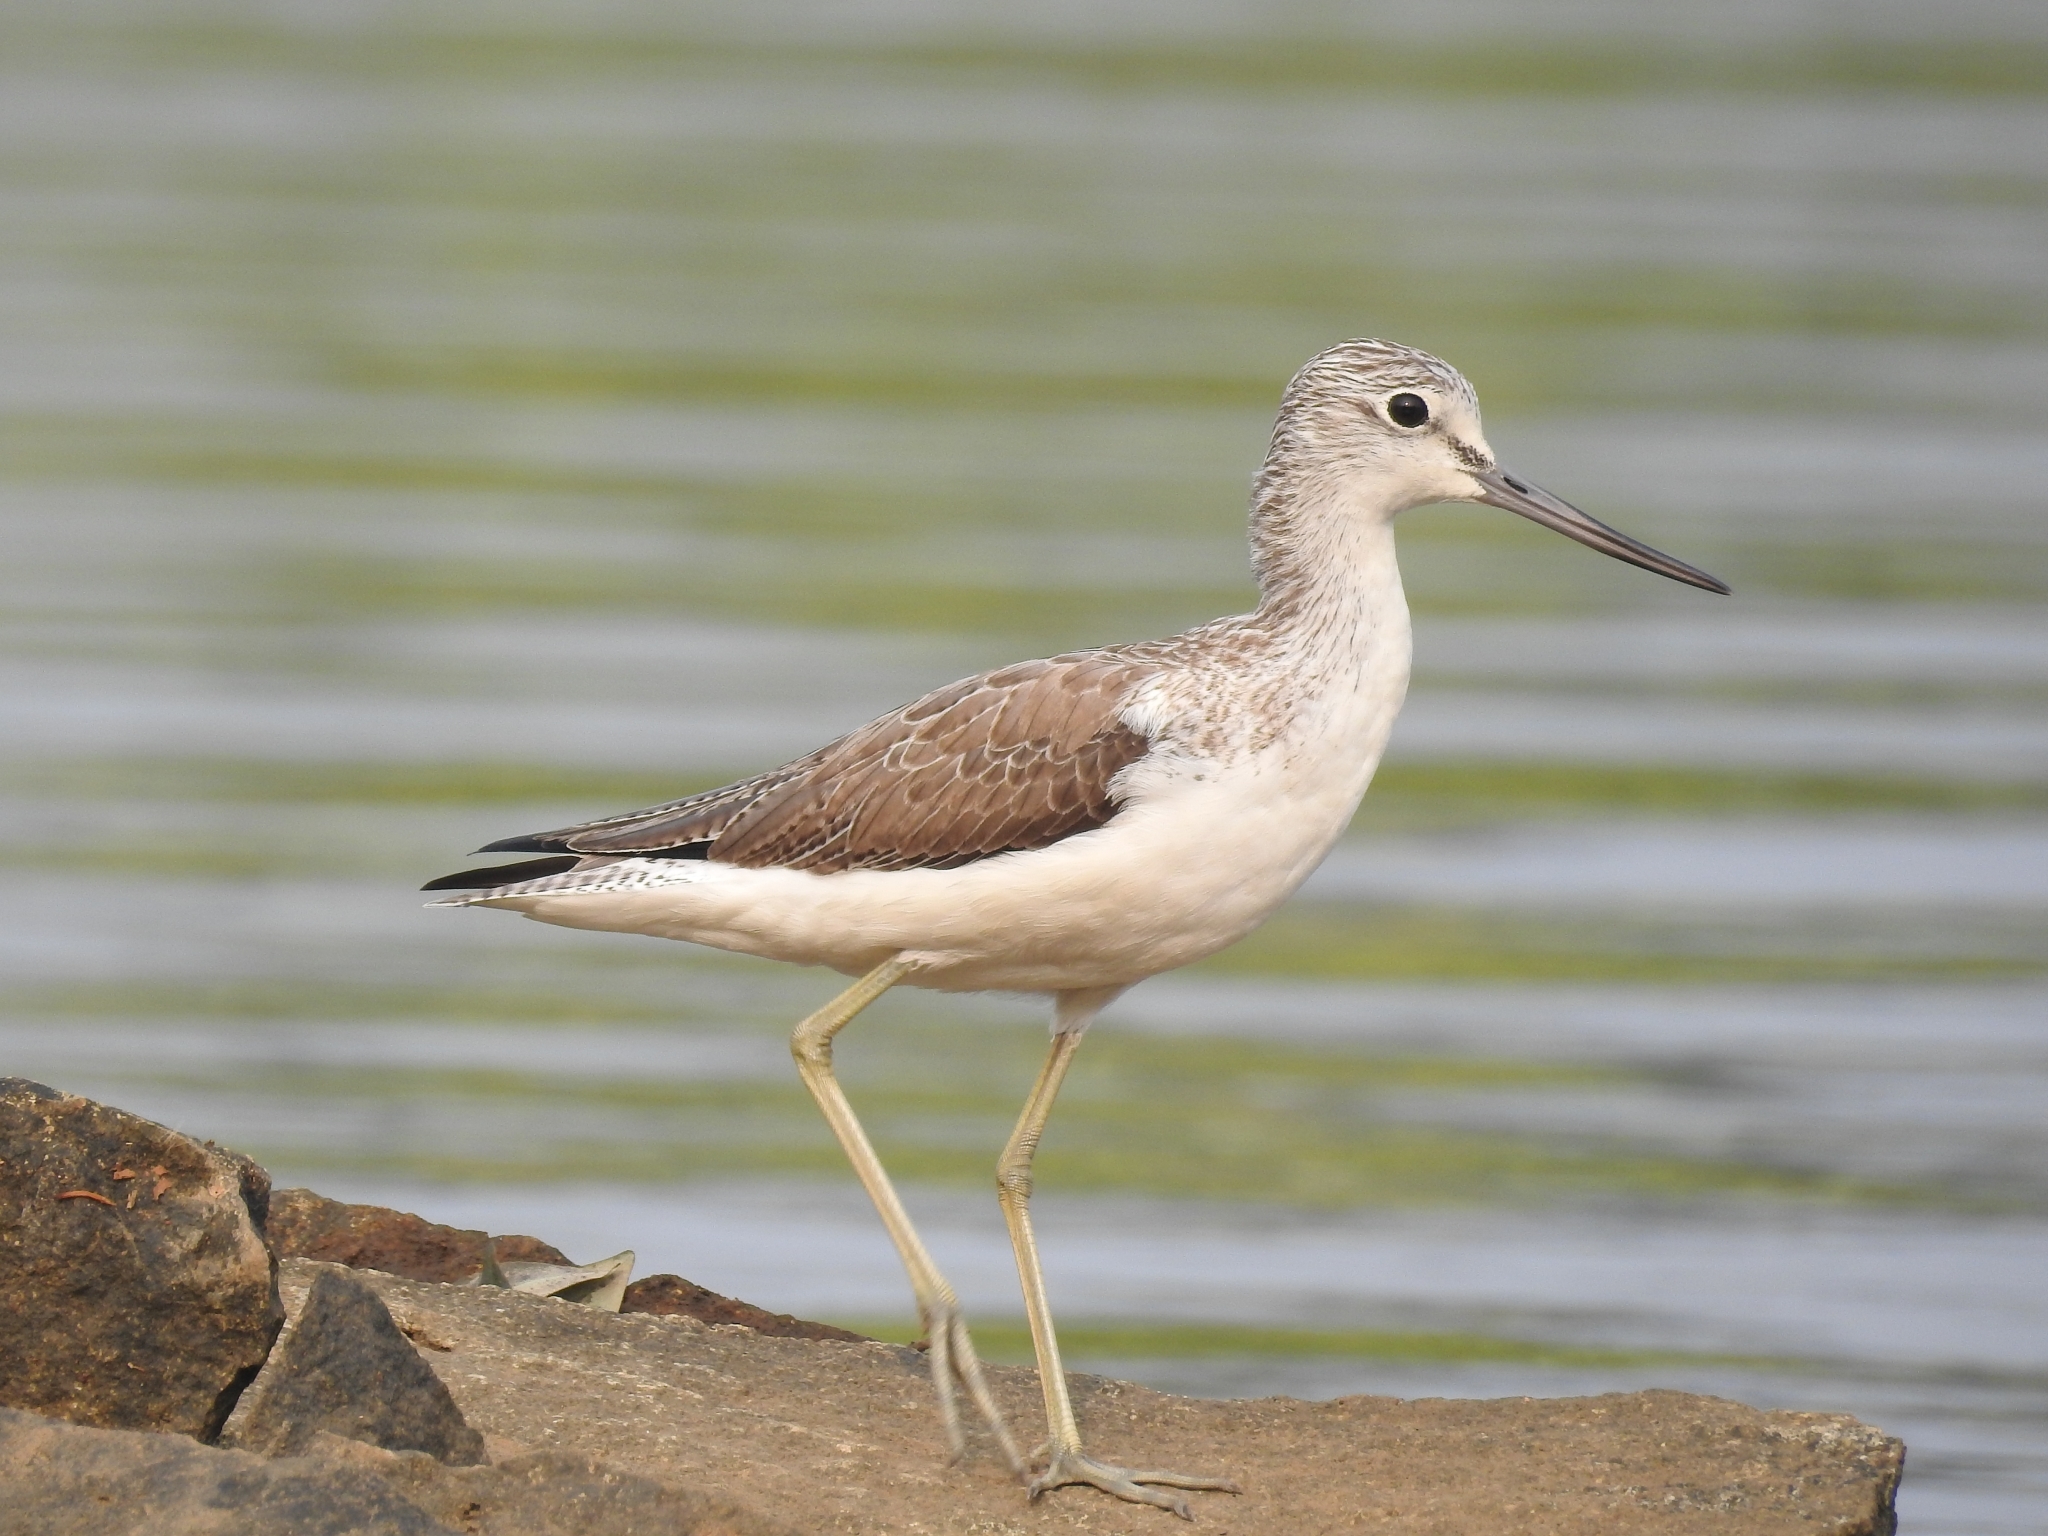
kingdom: Animalia
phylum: Chordata
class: Aves
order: Charadriiformes
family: Scolopacidae
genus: Tringa
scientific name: Tringa nebularia
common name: Common greenshank
